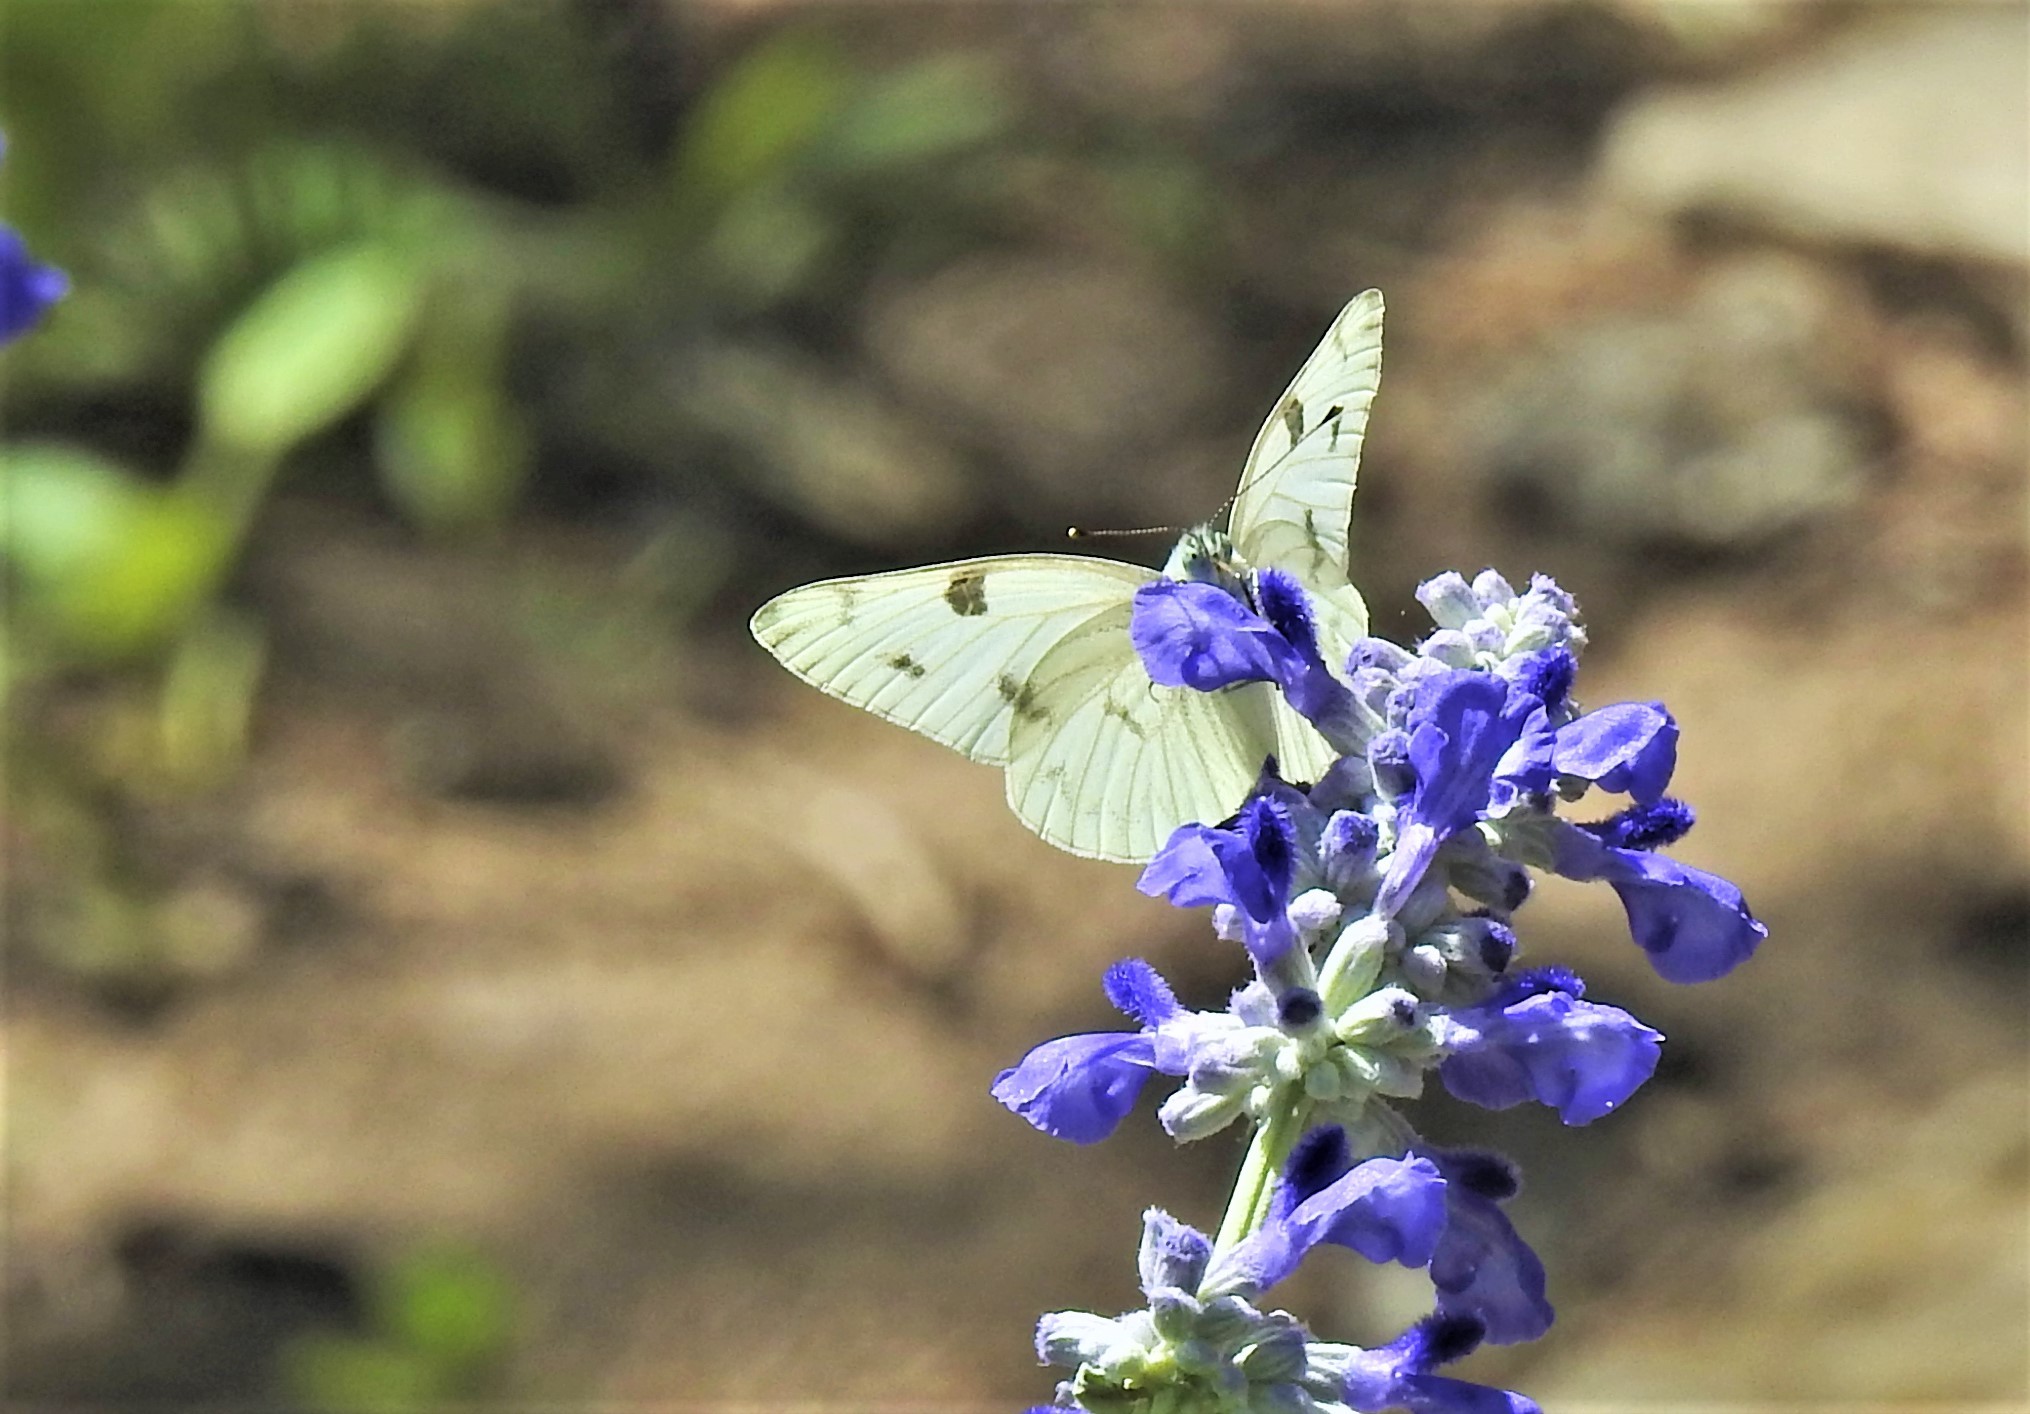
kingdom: Animalia
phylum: Arthropoda
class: Insecta
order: Lepidoptera
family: Pieridae
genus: Pontia
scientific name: Pontia protodice
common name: Checkered white
